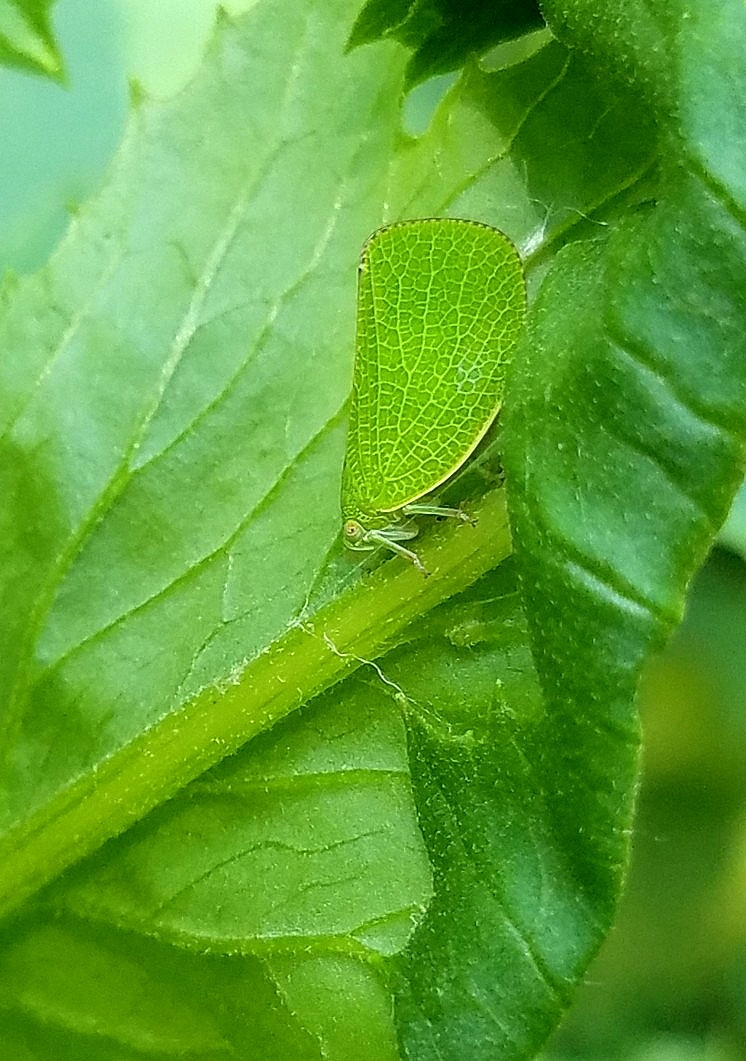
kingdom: Animalia
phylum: Arthropoda
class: Insecta
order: Hemiptera
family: Acanaloniidae
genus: Acanalonia
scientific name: Acanalonia conica
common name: Green cone-headed planthopper
